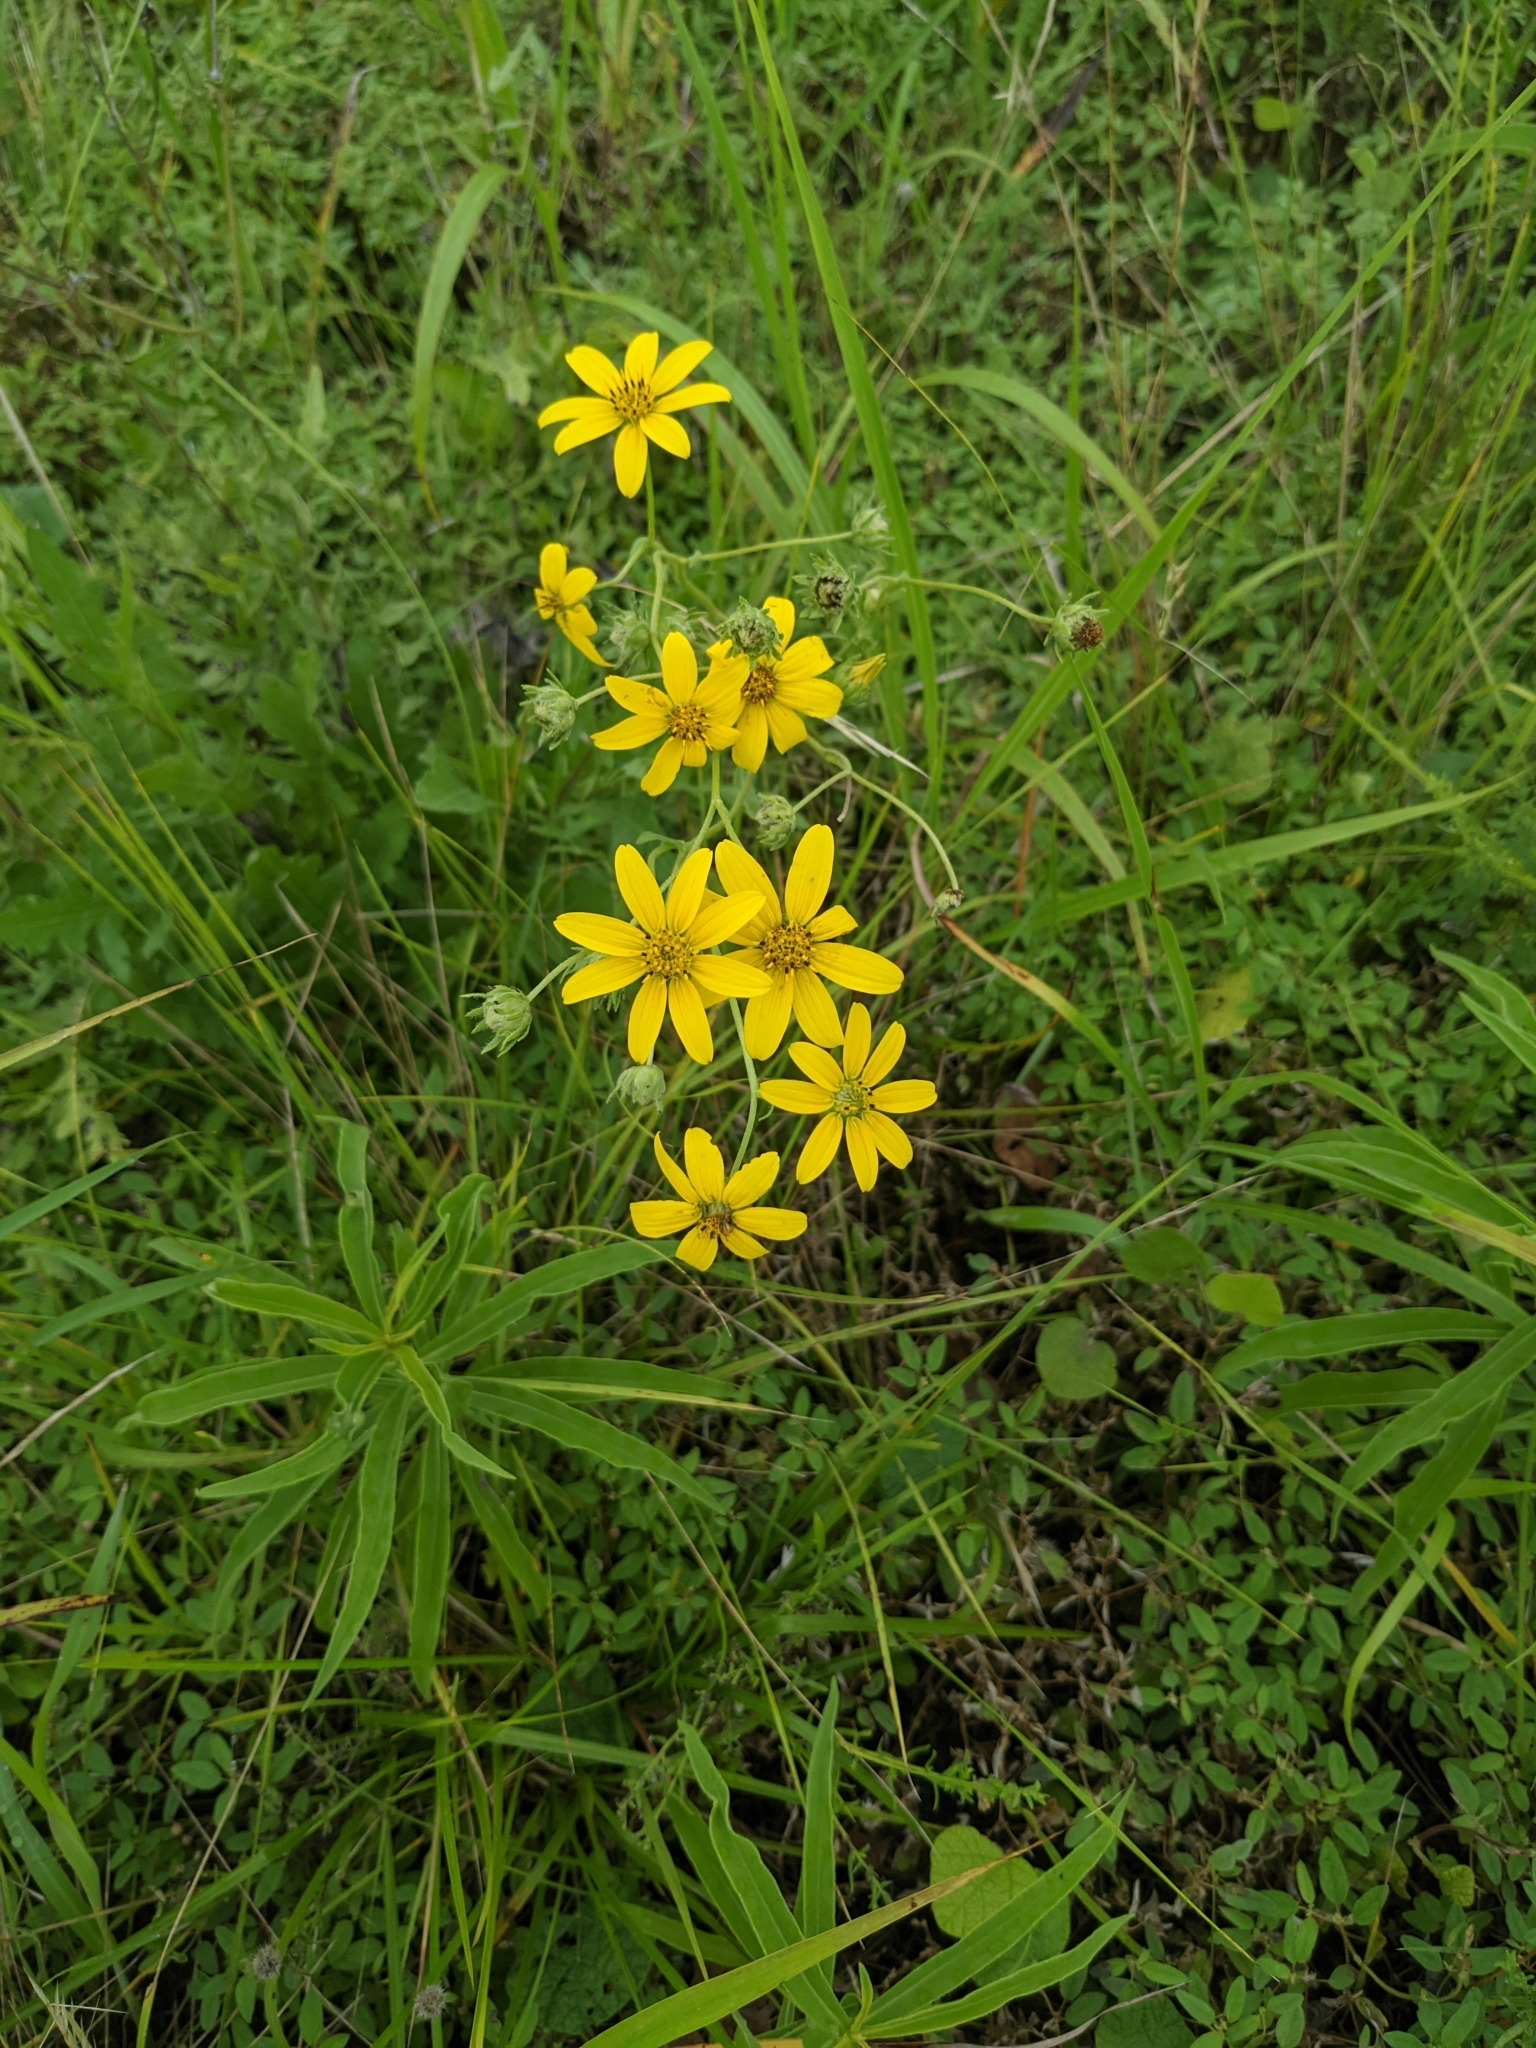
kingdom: Plantae
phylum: Tracheophyta
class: Magnoliopsida
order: Asterales
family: Asteraceae
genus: Engelmannia
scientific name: Engelmannia peristenia
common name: Engelmann's daisy
